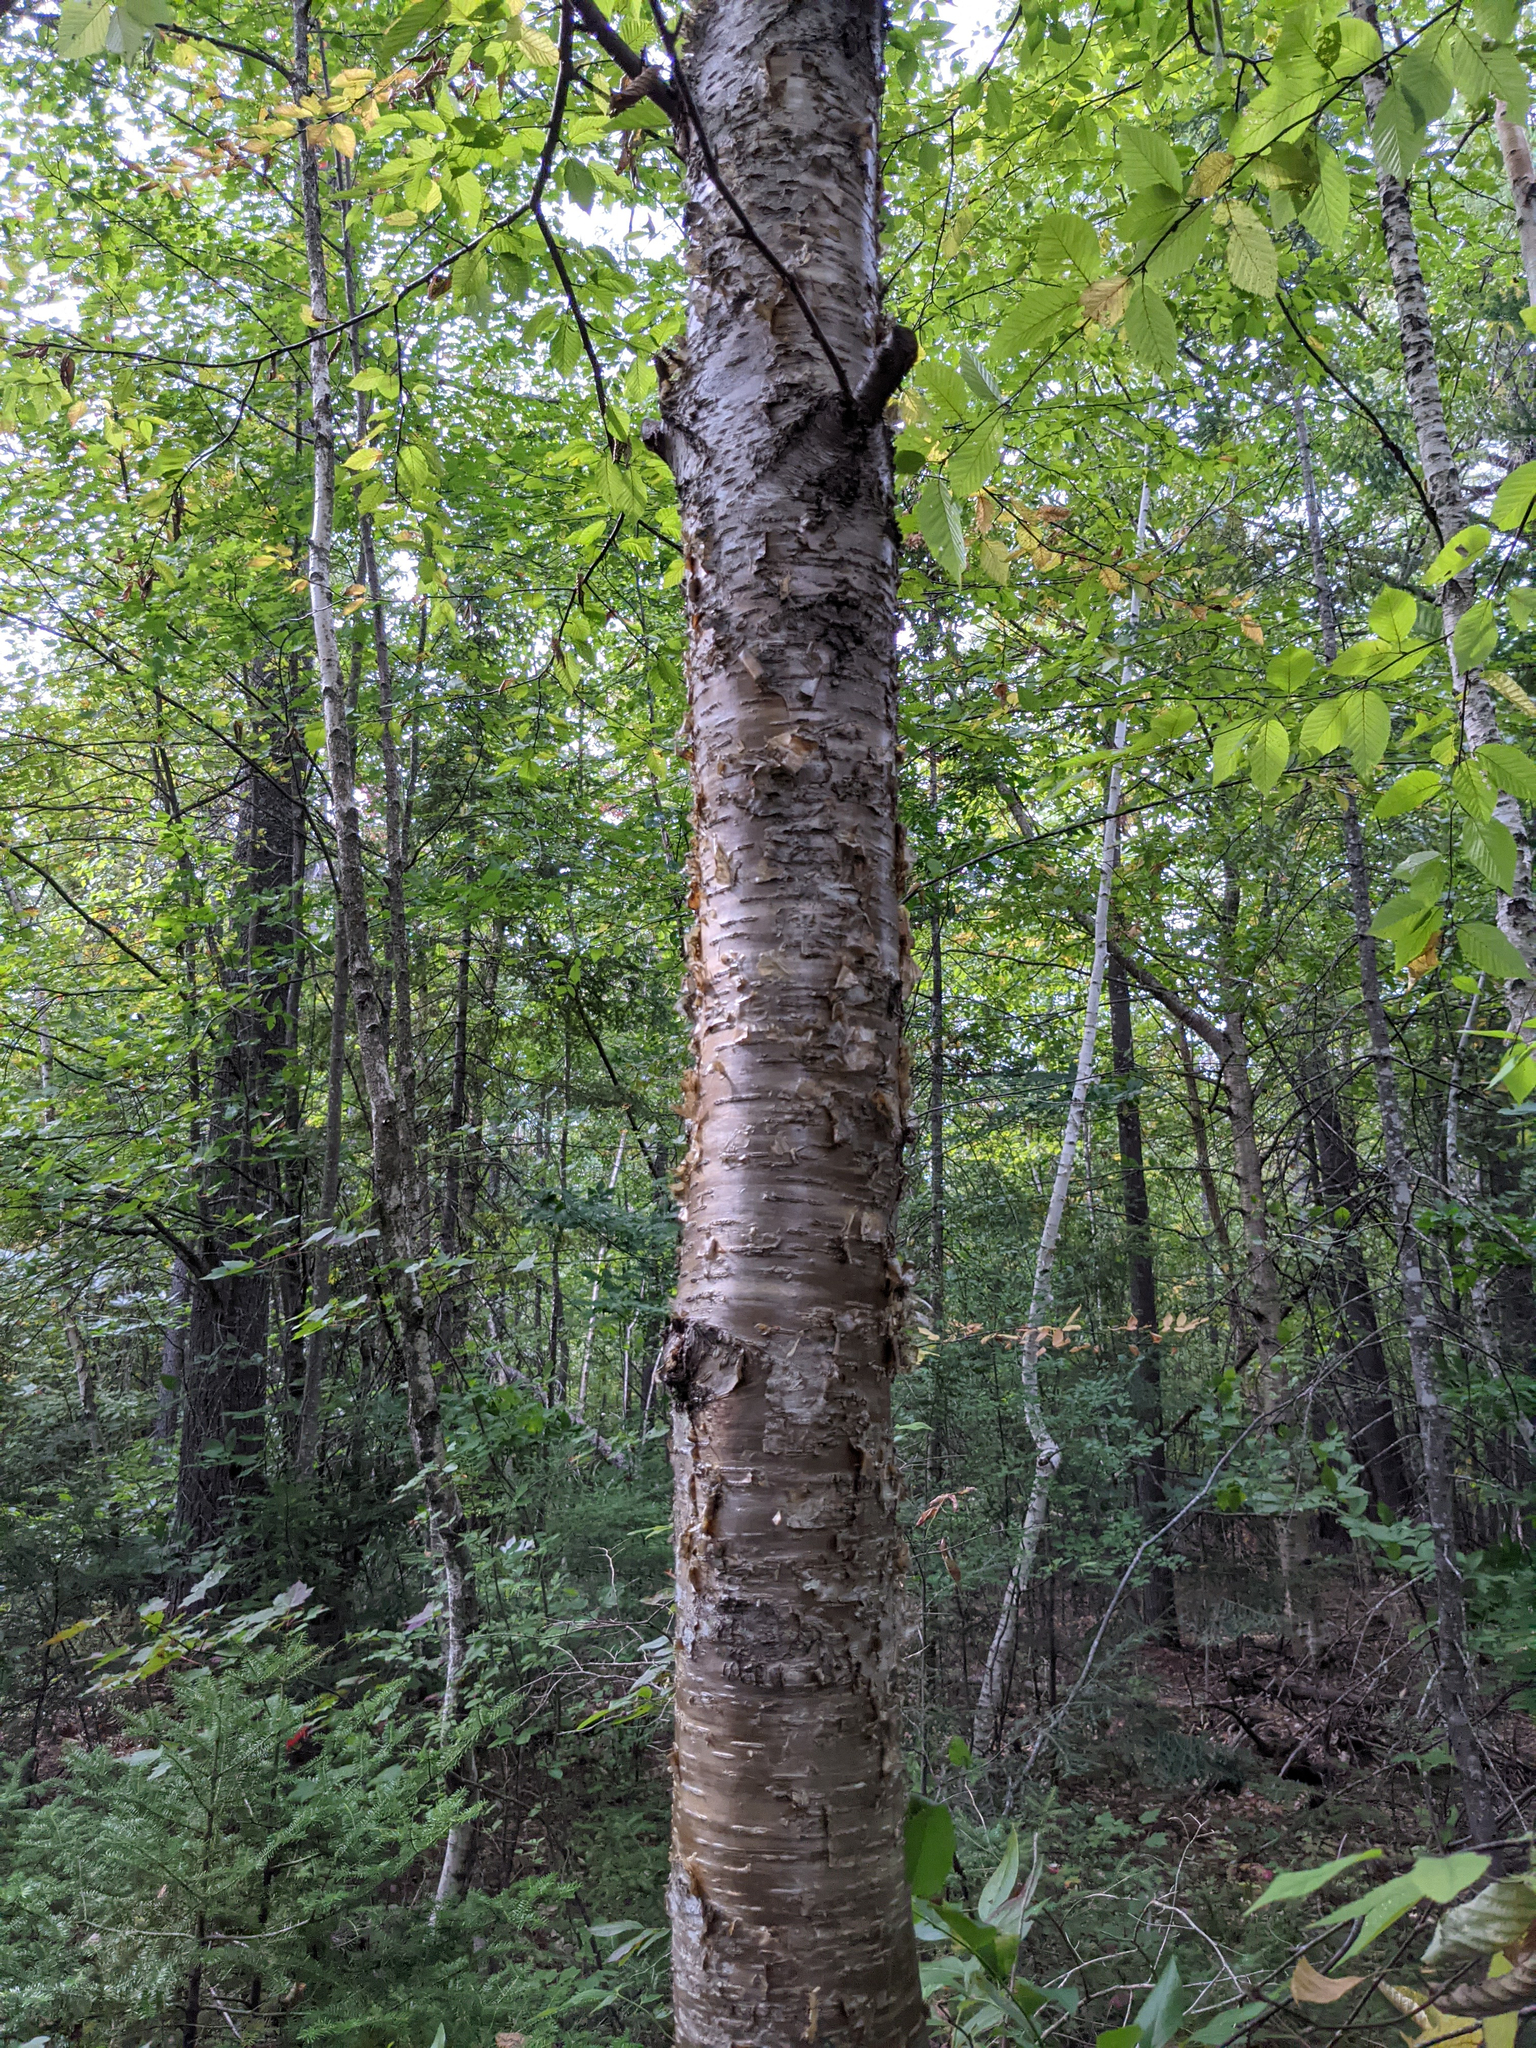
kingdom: Plantae
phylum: Tracheophyta
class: Magnoliopsida
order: Fagales
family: Betulaceae
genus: Betula
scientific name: Betula alleghaniensis
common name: Yellow birch
